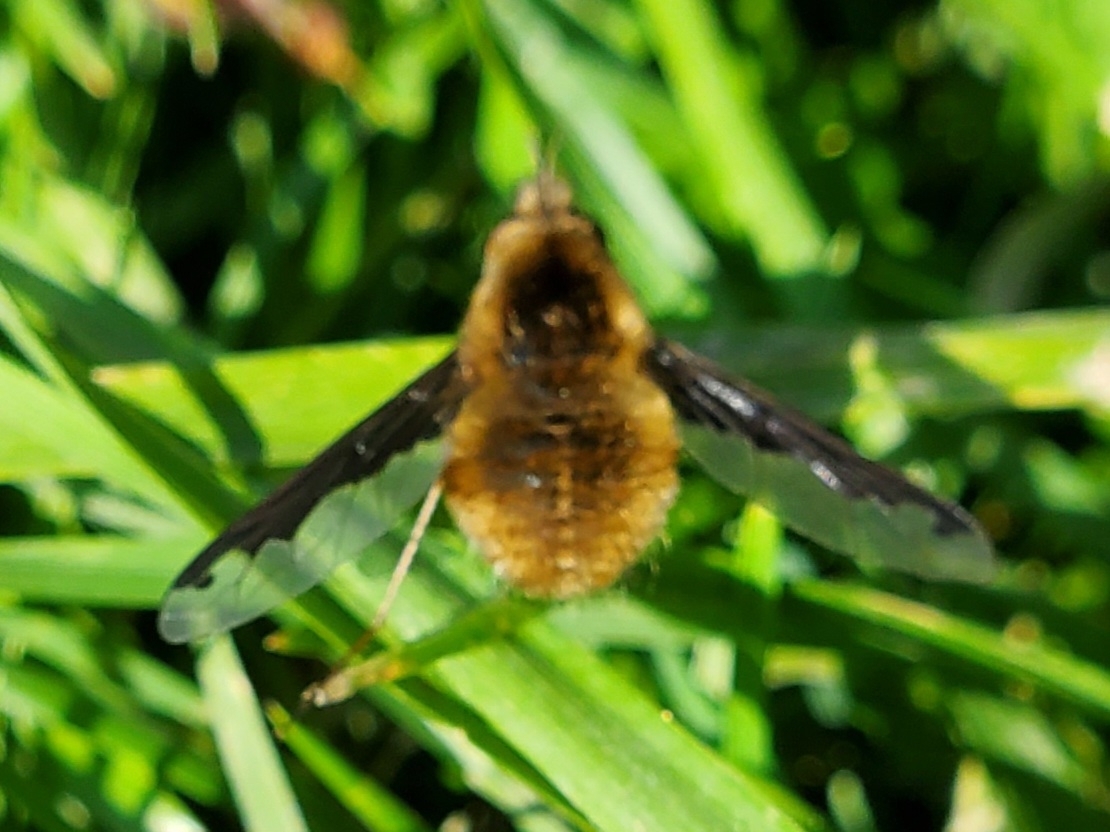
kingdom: Animalia
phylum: Arthropoda
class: Insecta
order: Diptera
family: Bombyliidae
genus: Bombylius
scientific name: Bombylius major
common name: Bee fly
